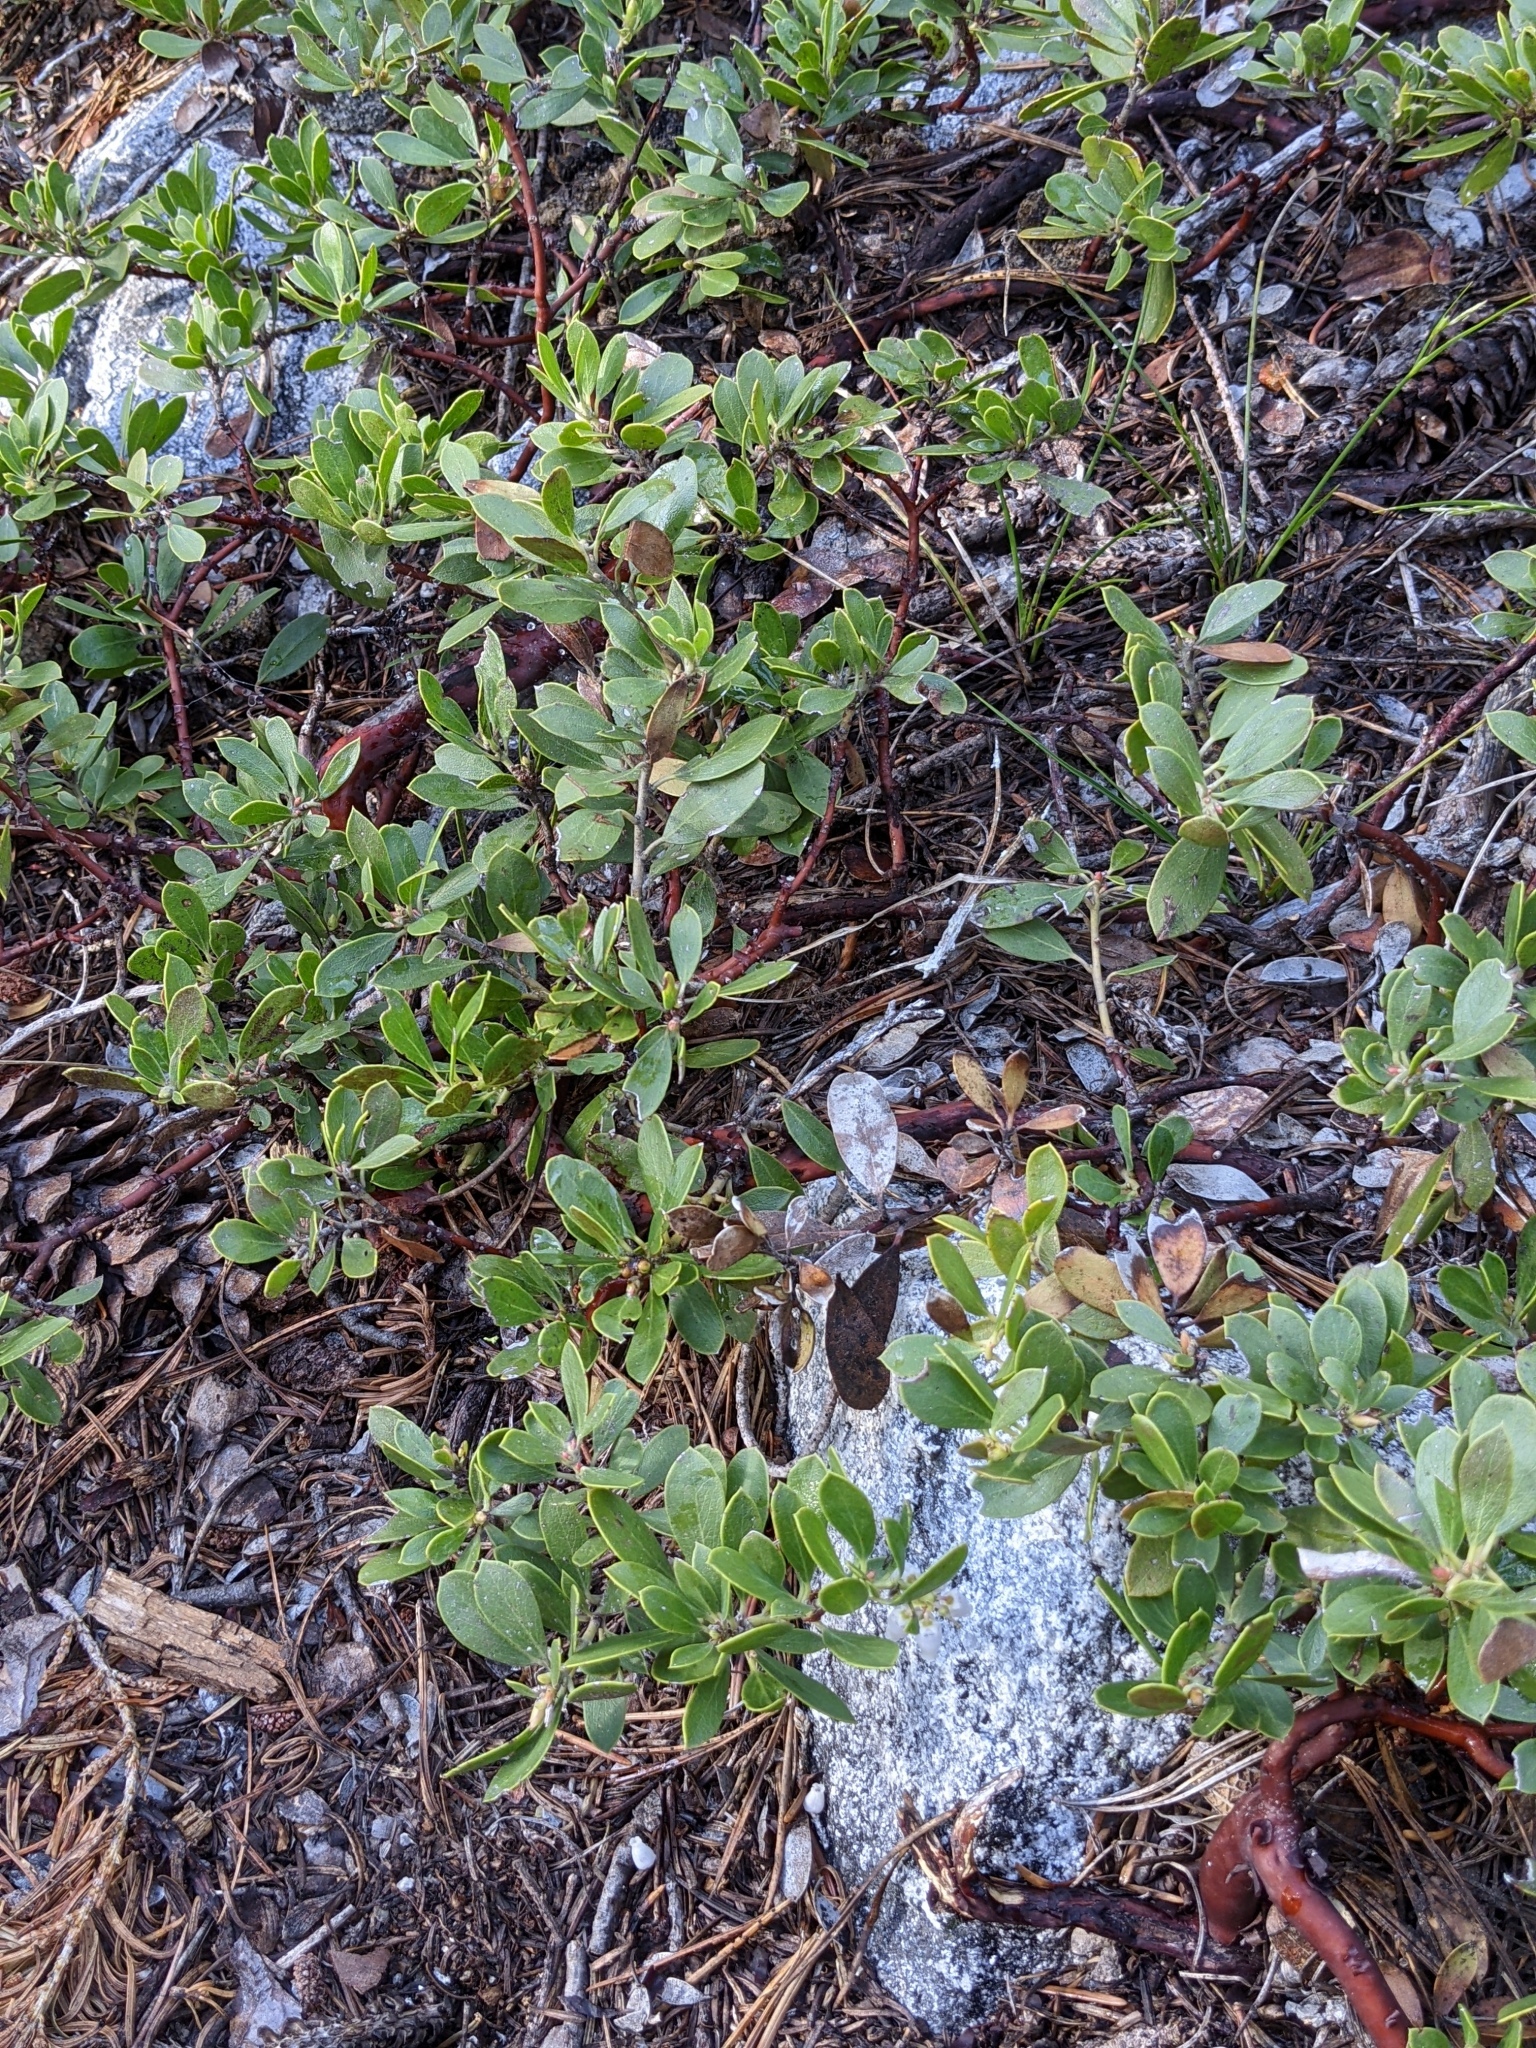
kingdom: Plantae
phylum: Tracheophyta
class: Magnoliopsida
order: Ericales
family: Ericaceae
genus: Arctostaphylos
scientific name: Arctostaphylos nevadensis
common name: Pinemat manzanita
